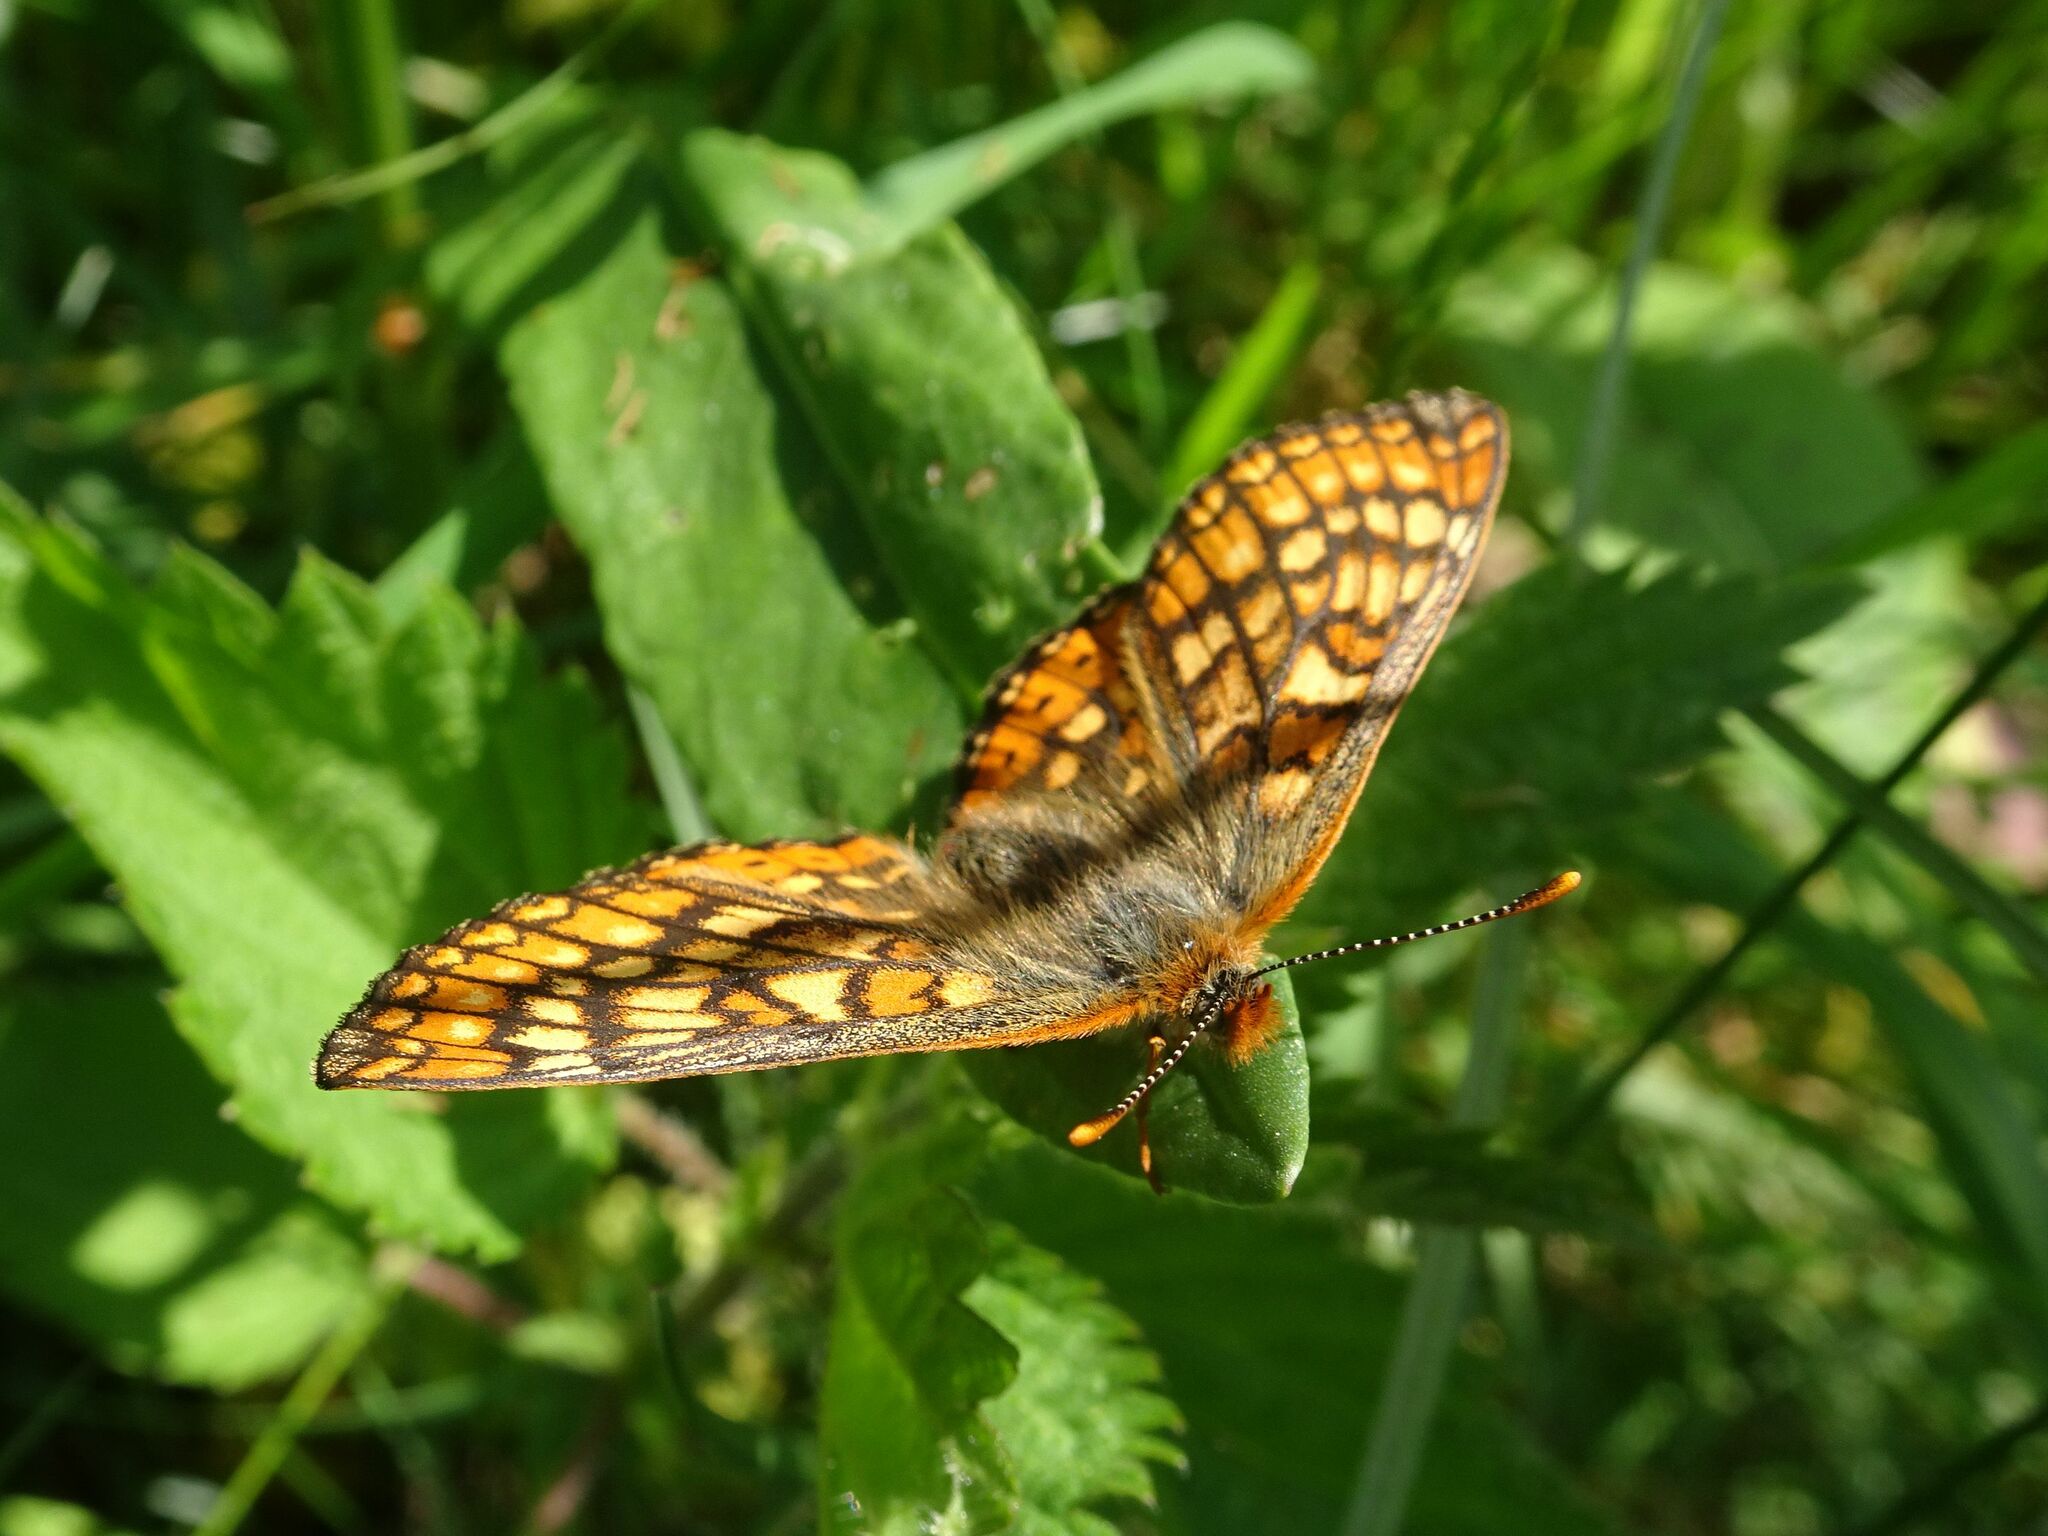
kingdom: Animalia
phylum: Arthropoda
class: Insecta
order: Lepidoptera
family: Nymphalidae
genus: Euphydryas
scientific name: Euphydryas aurinia
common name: Marsh fritillary
